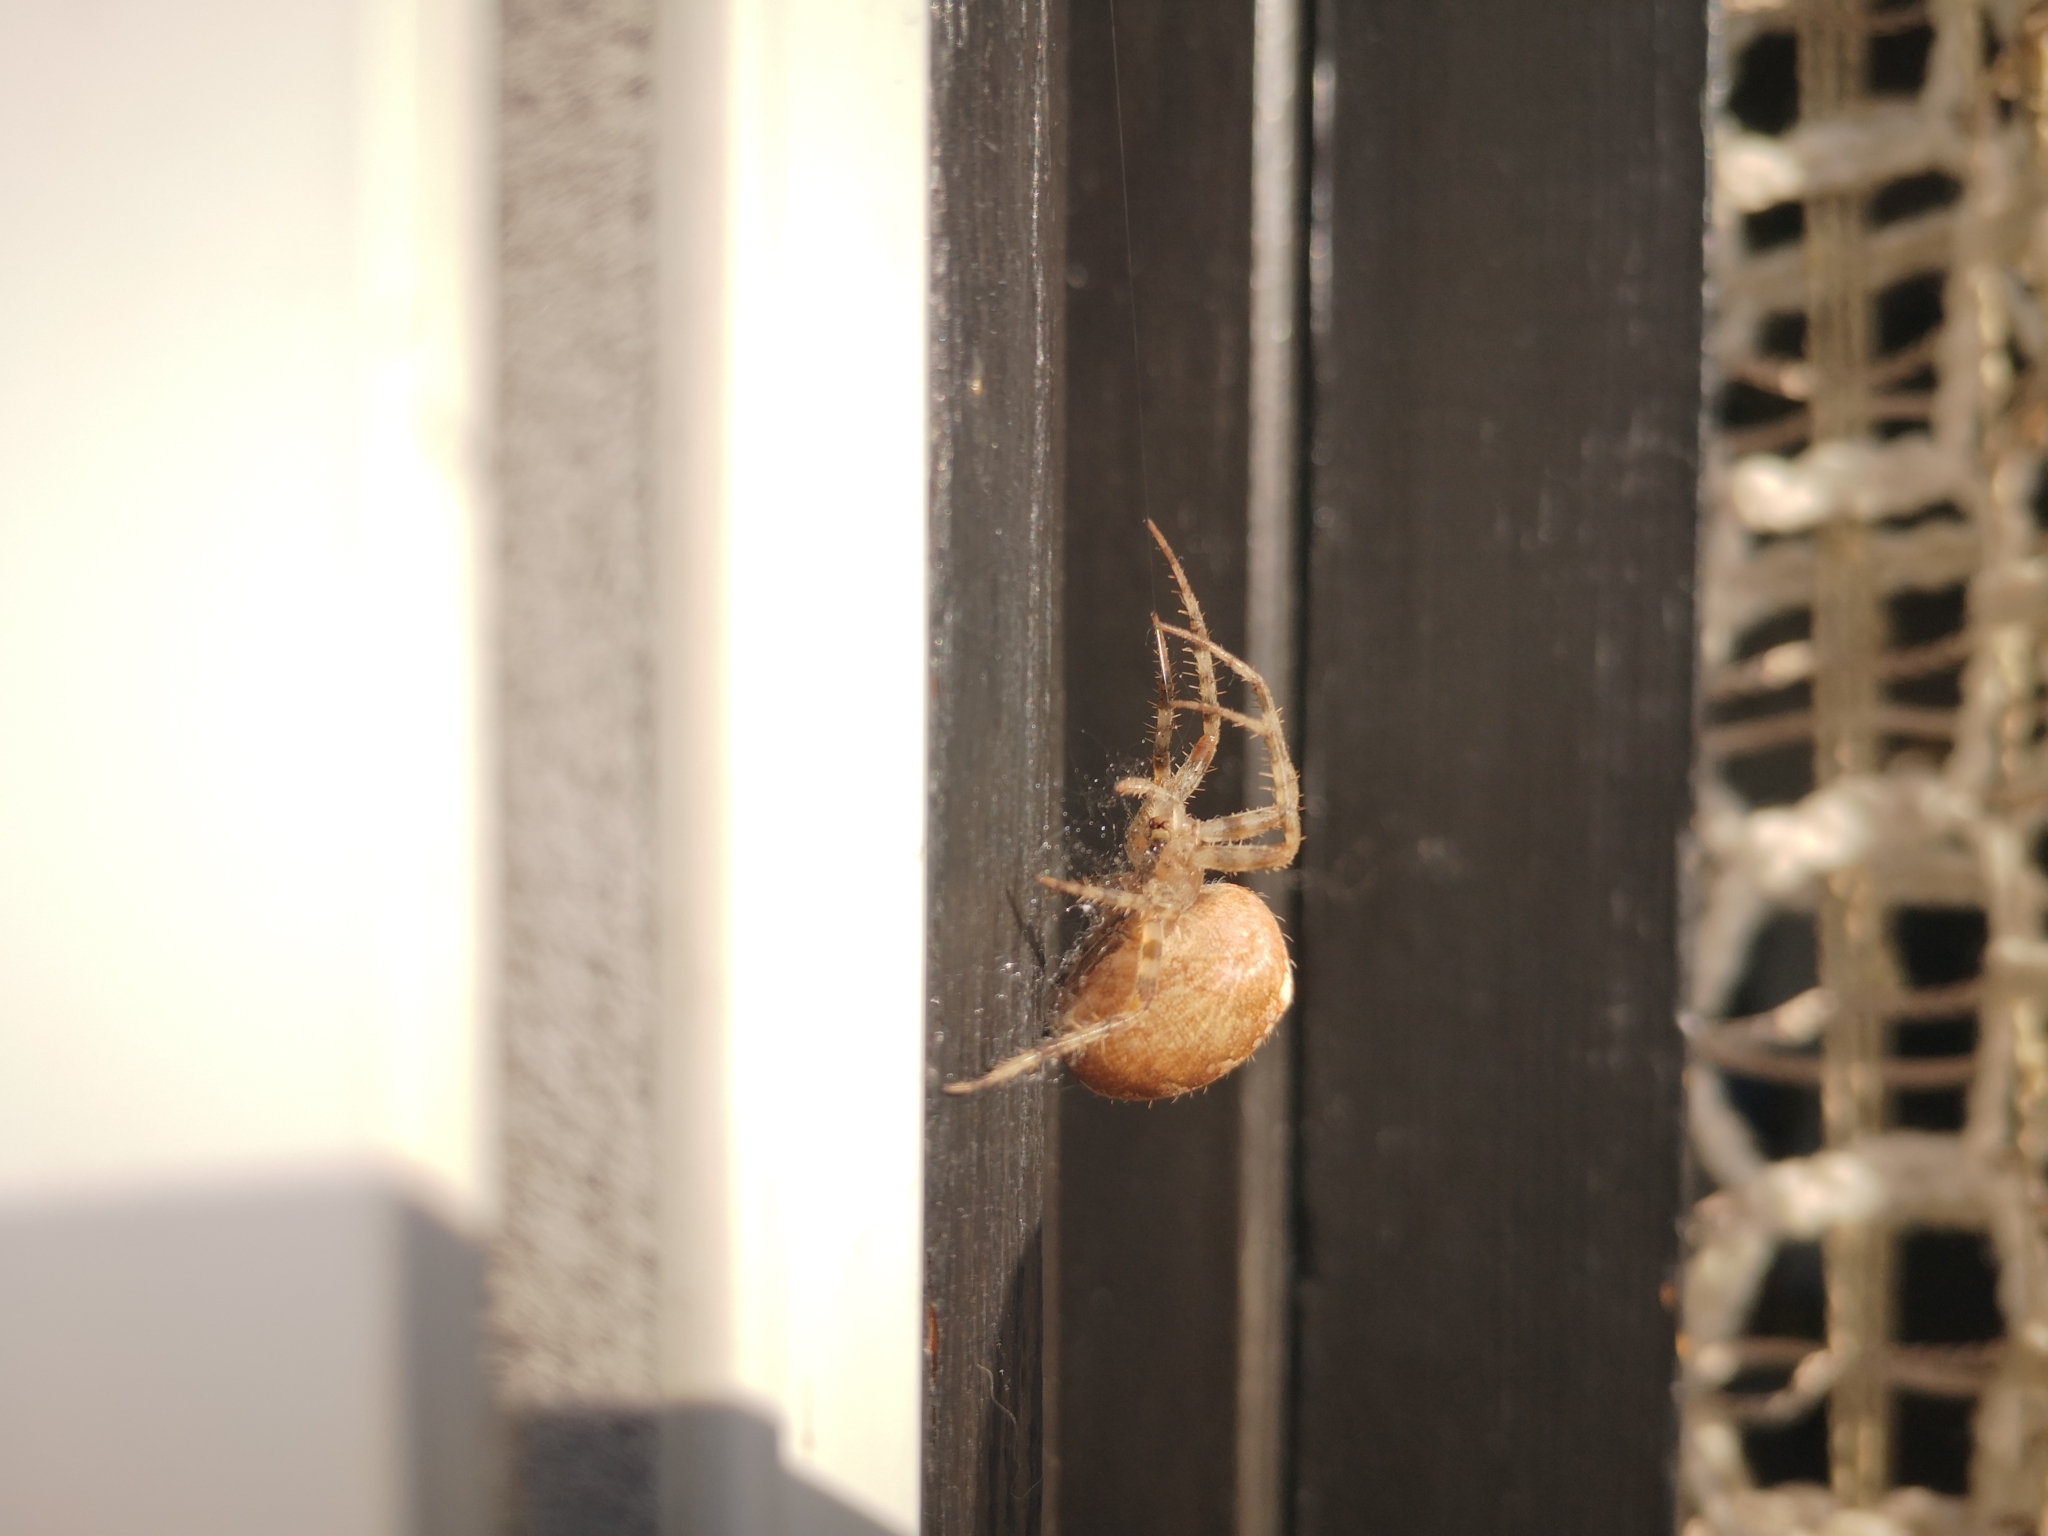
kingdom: Animalia
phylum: Arthropoda
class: Arachnida
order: Araneae
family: Araneidae
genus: Araneus
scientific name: Araneus diadematus
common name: Cross orbweaver
